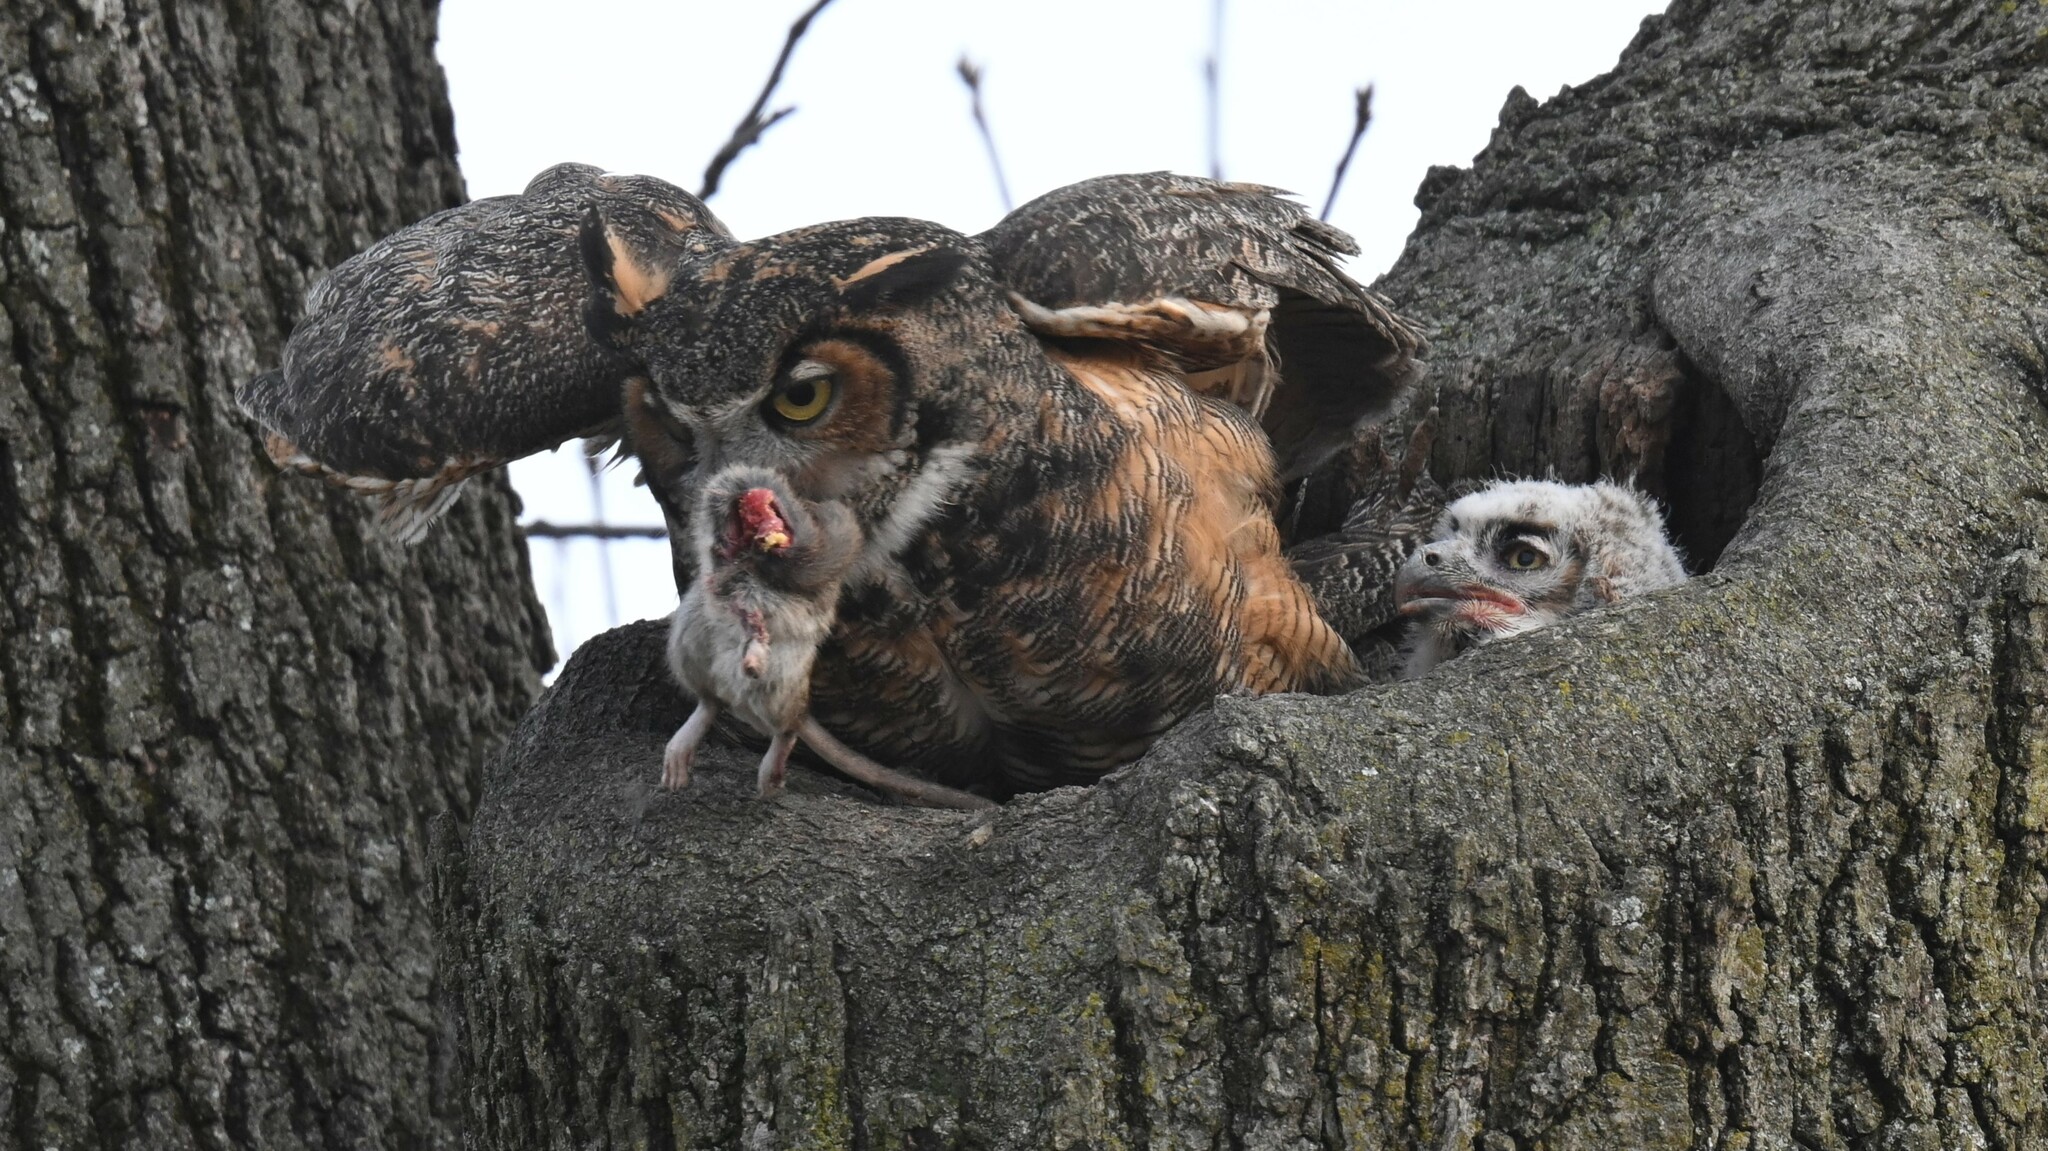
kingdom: Animalia
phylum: Chordata
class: Aves
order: Strigiformes
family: Strigidae
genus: Bubo
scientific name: Bubo virginianus
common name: Great horned owl
